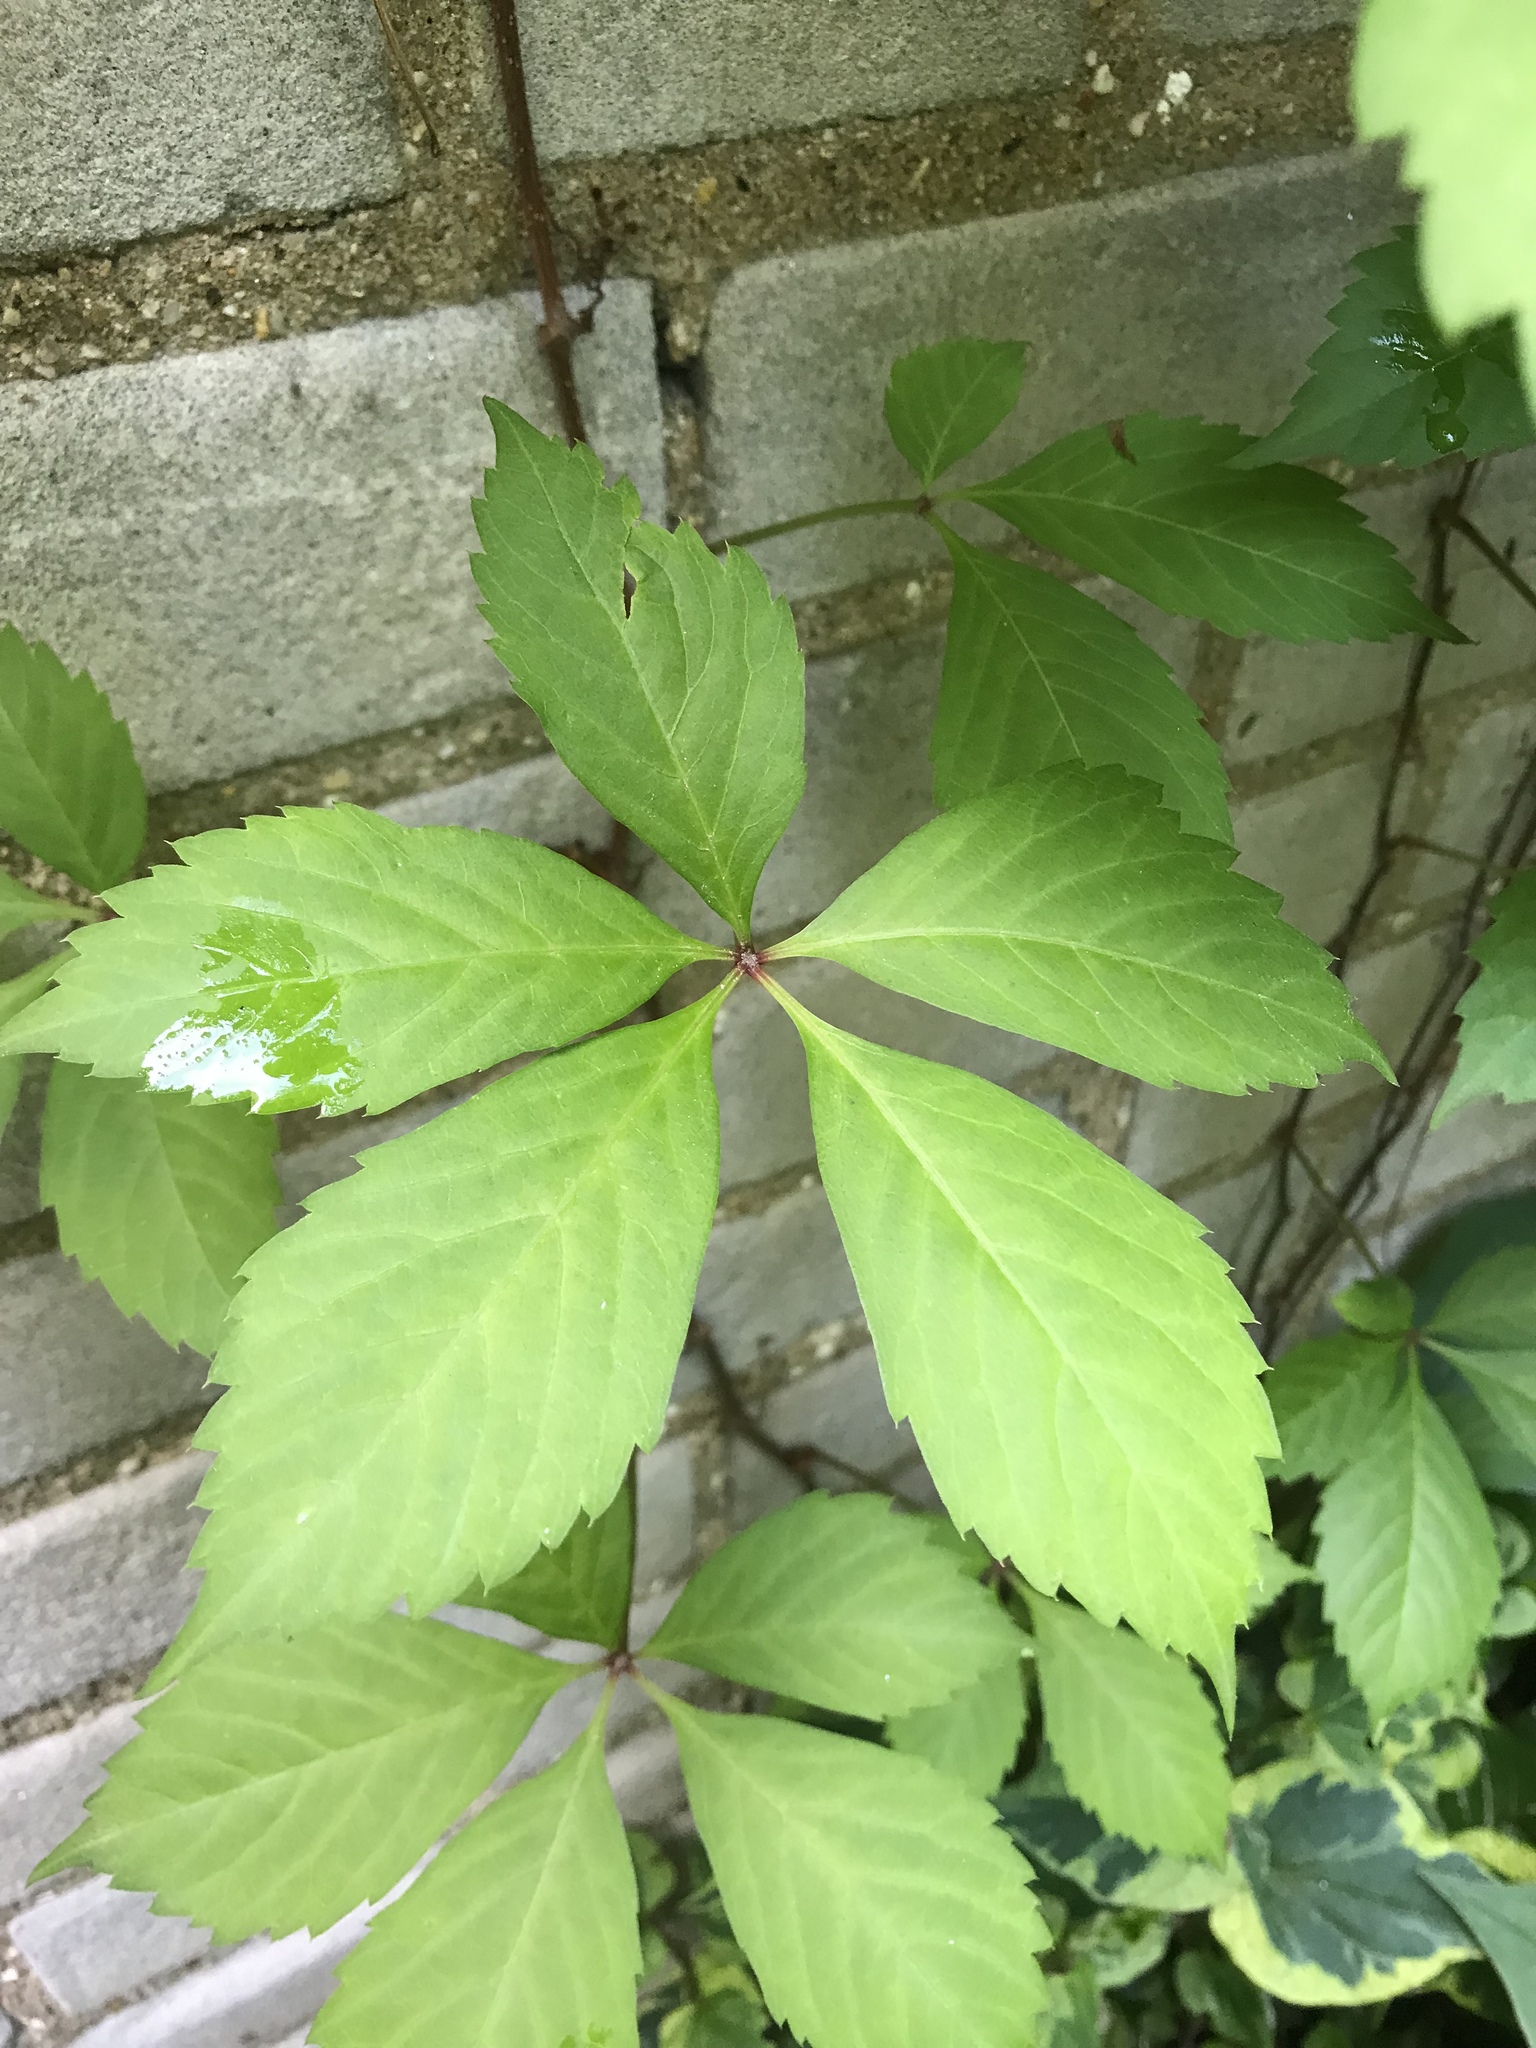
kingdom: Plantae
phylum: Tracheophyta
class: Magnoliopsida
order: Vitales
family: Vitaceae
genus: Parthenocissus
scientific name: Parthenocissus quinquefolia
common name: Virginia-creeper
